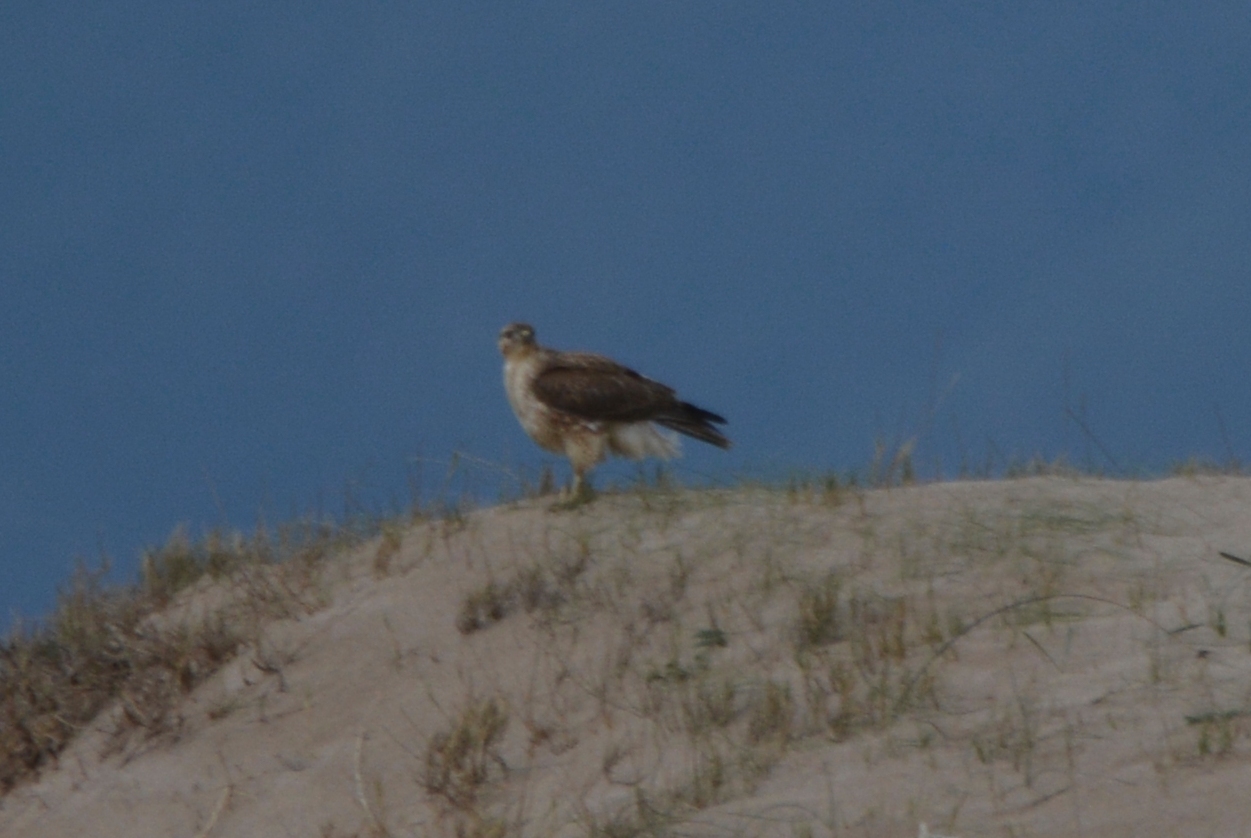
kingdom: Animalia
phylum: Chordata
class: Aves
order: Accipitriformes
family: Accipitridae
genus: Buteo
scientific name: Buteo rufinus
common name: Long-legged buzzard
